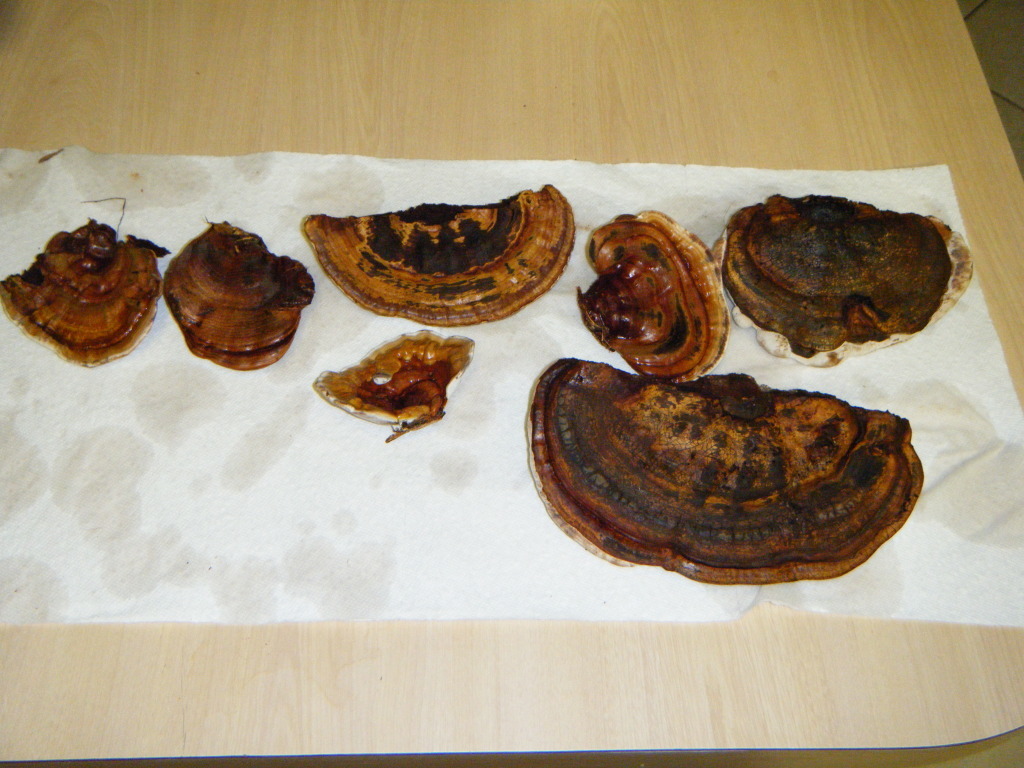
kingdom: Fungi
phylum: Basidiomycota
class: Agaricomycetes
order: Polyporales
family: Polyporaceae
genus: Ganoderma
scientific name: Ganoderma zonatum
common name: Ganoderma butt rot
